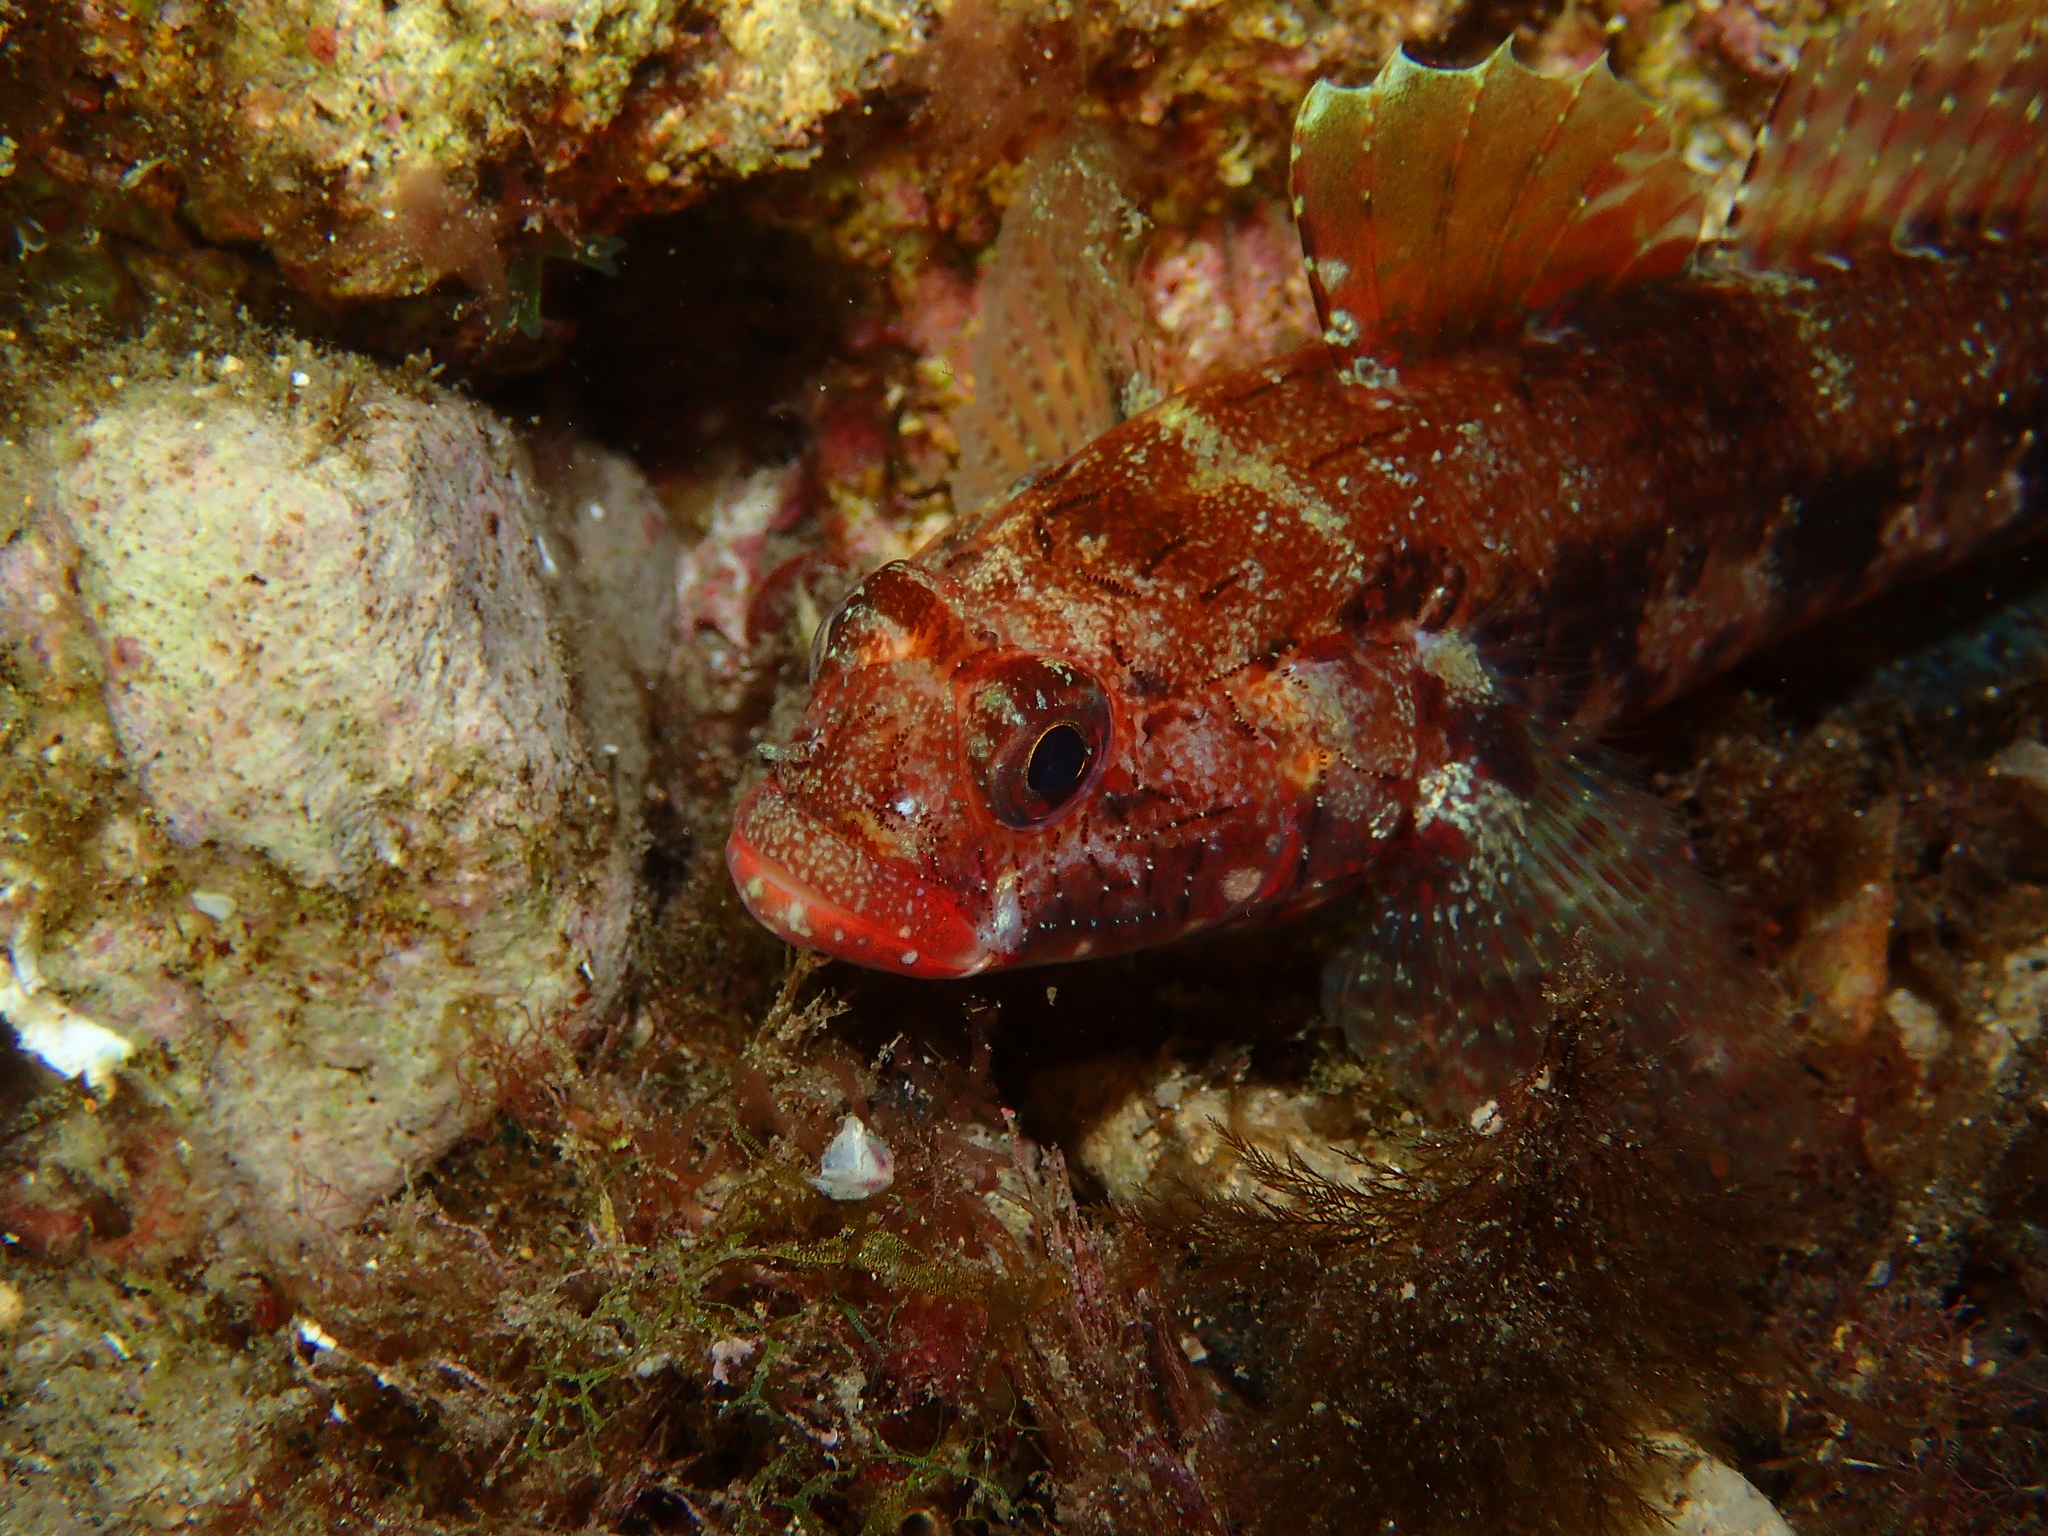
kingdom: Animalia
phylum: Chordata
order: Perciformes
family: Gobiidae
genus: Gobius
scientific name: Gobius cruentatus
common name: Red-mouthed goby
